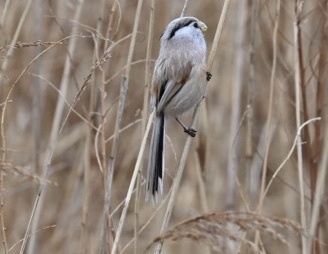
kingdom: Animalia
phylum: Chordata
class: Aves
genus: Calamornis
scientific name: Calamornis
